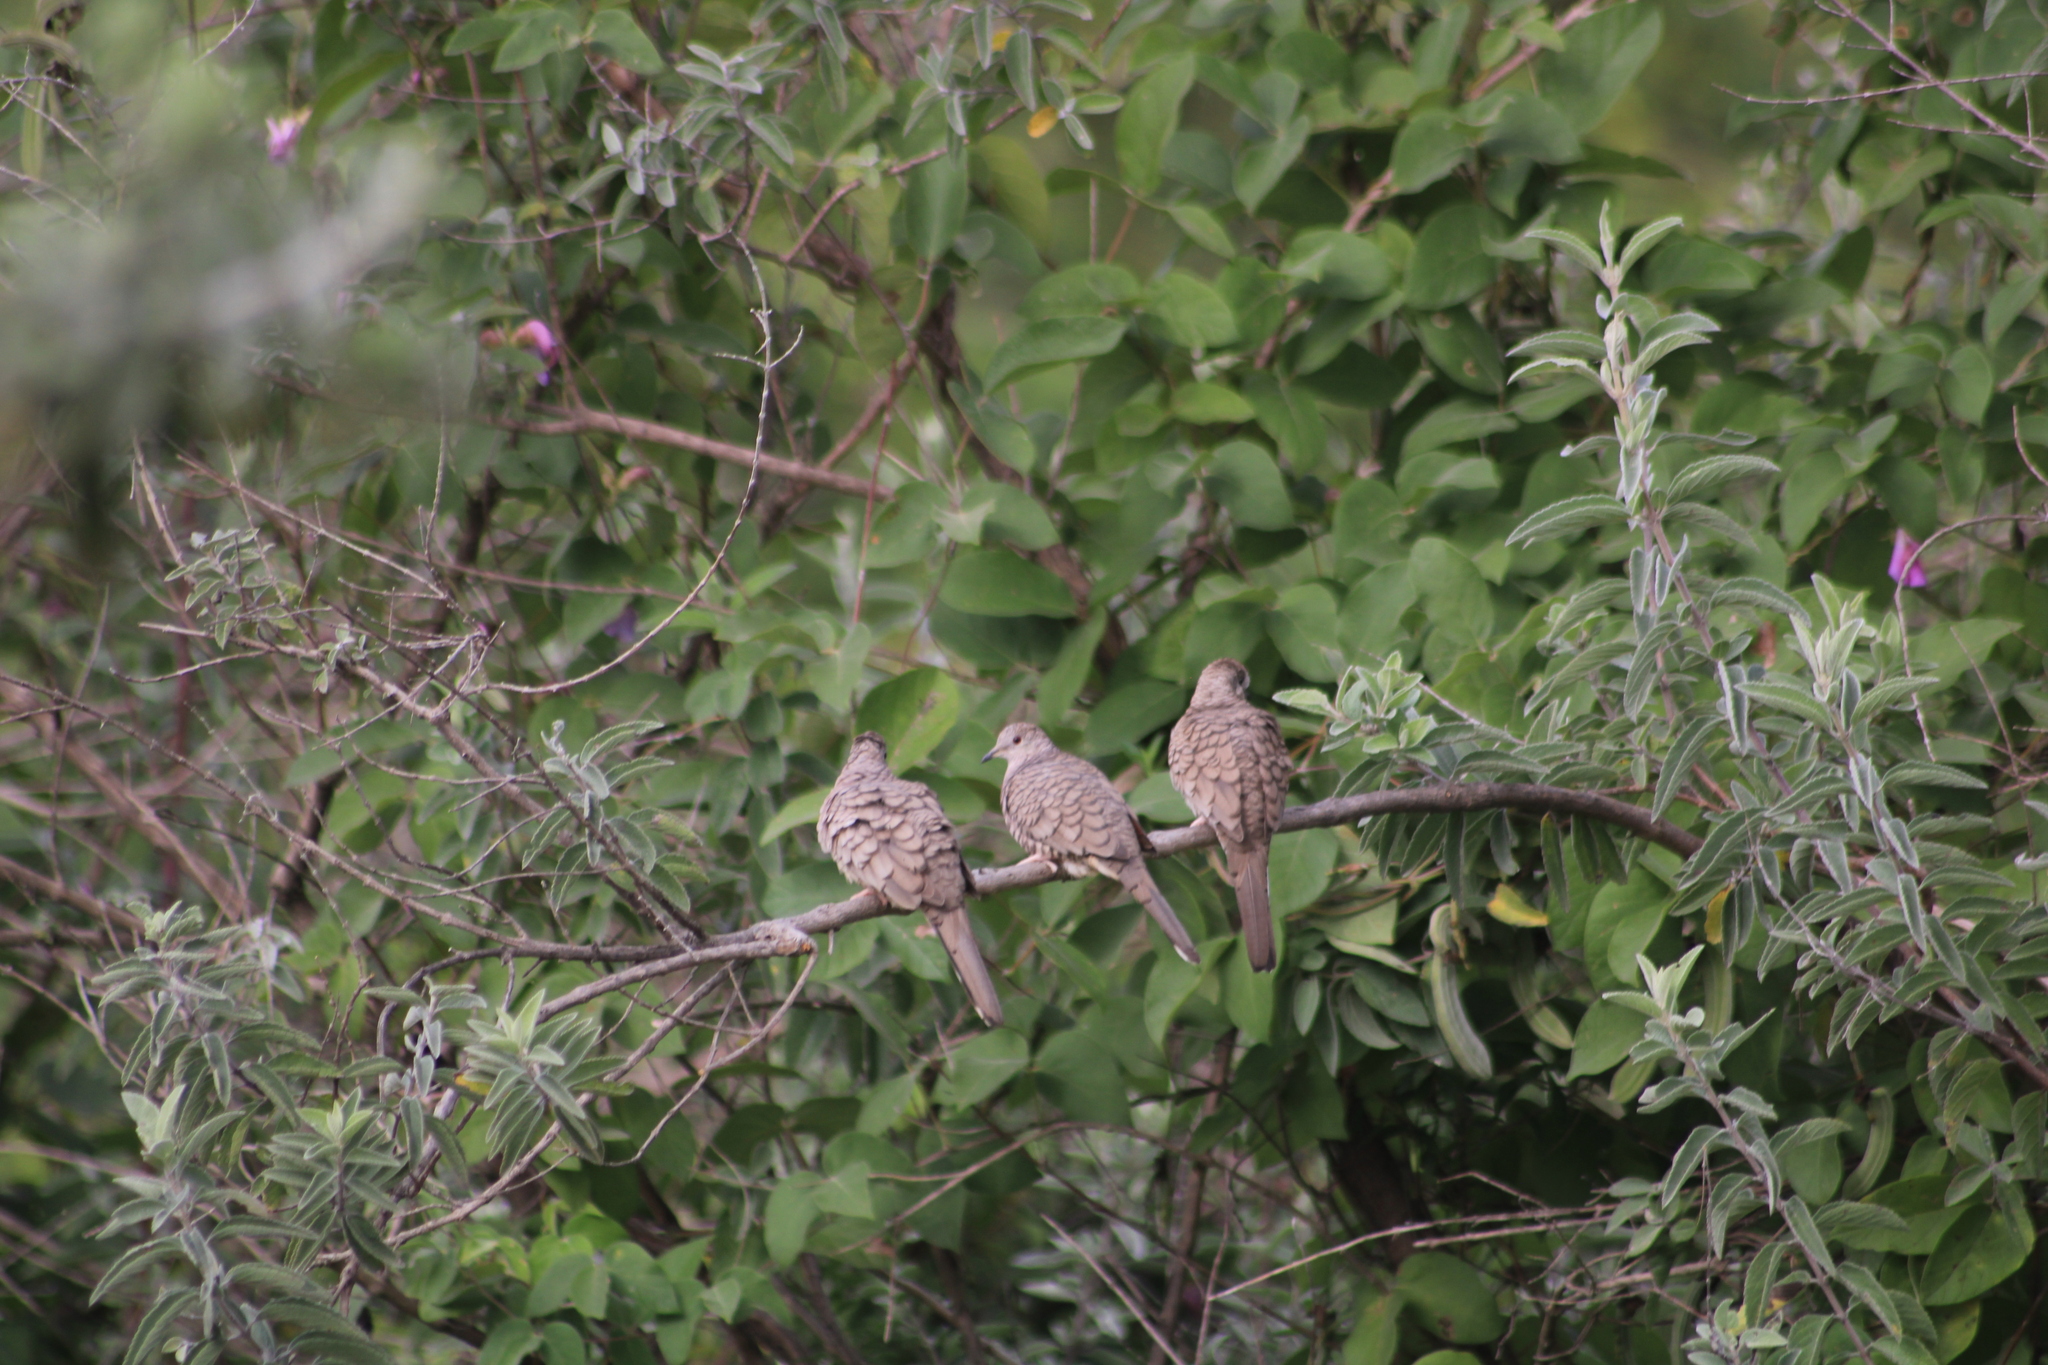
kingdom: Animalia
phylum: Chordata
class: Aves
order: Columbiformes
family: Columbidae
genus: Columbina
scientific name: Columbina inca
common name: Inca dove
